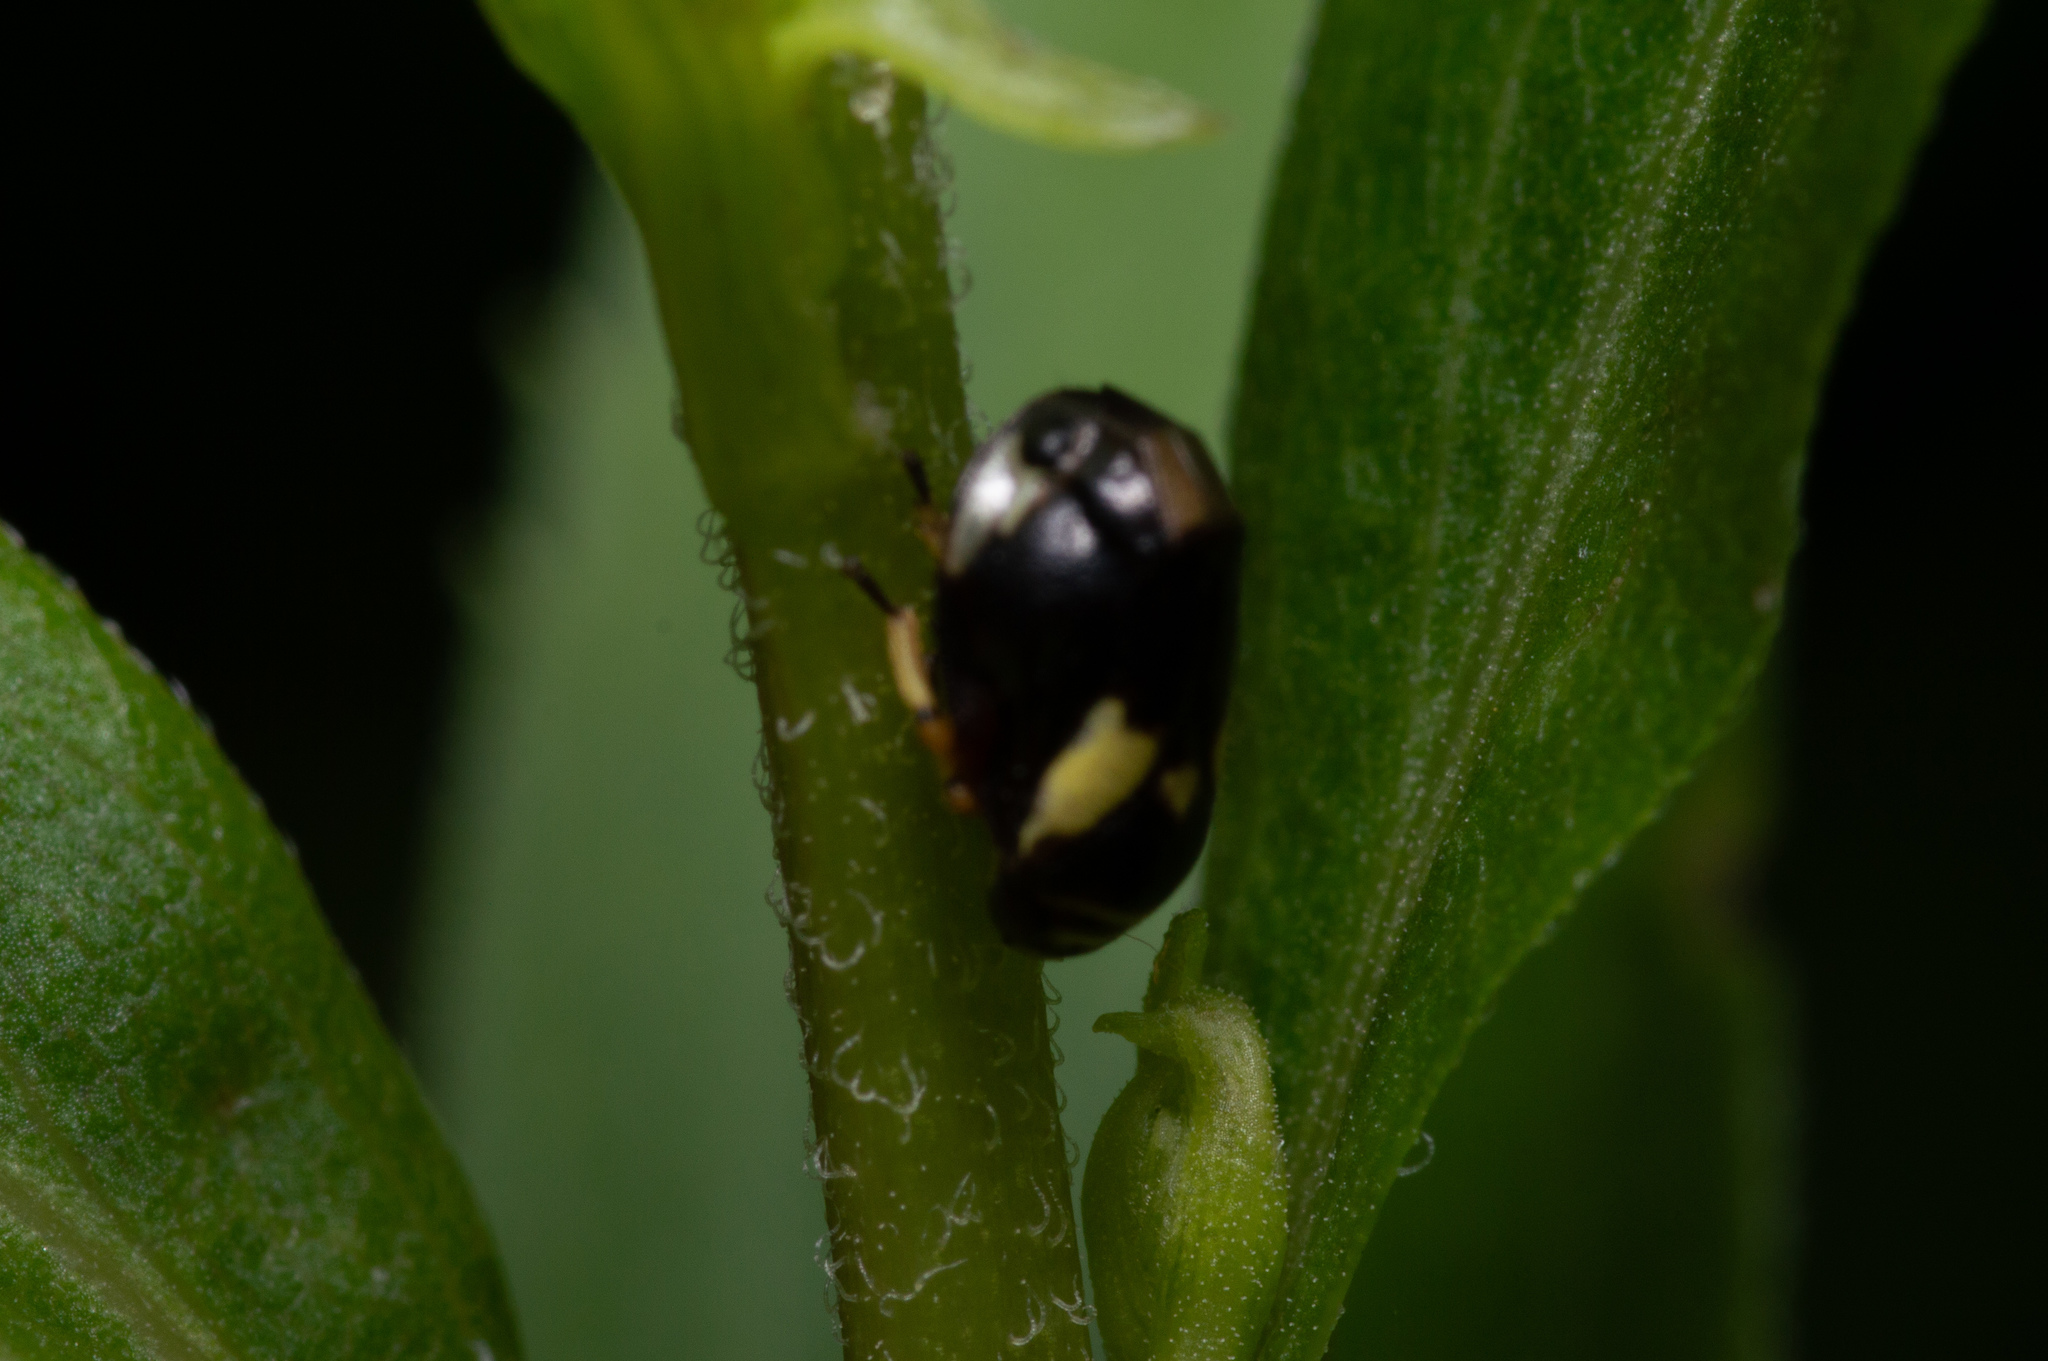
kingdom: Animalia
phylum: Arthropoda
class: Insecta
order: Hemiptera
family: Clastopteridae
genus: Clastoptera
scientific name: Clastoptera proteus
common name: Dogwood spittlebug
